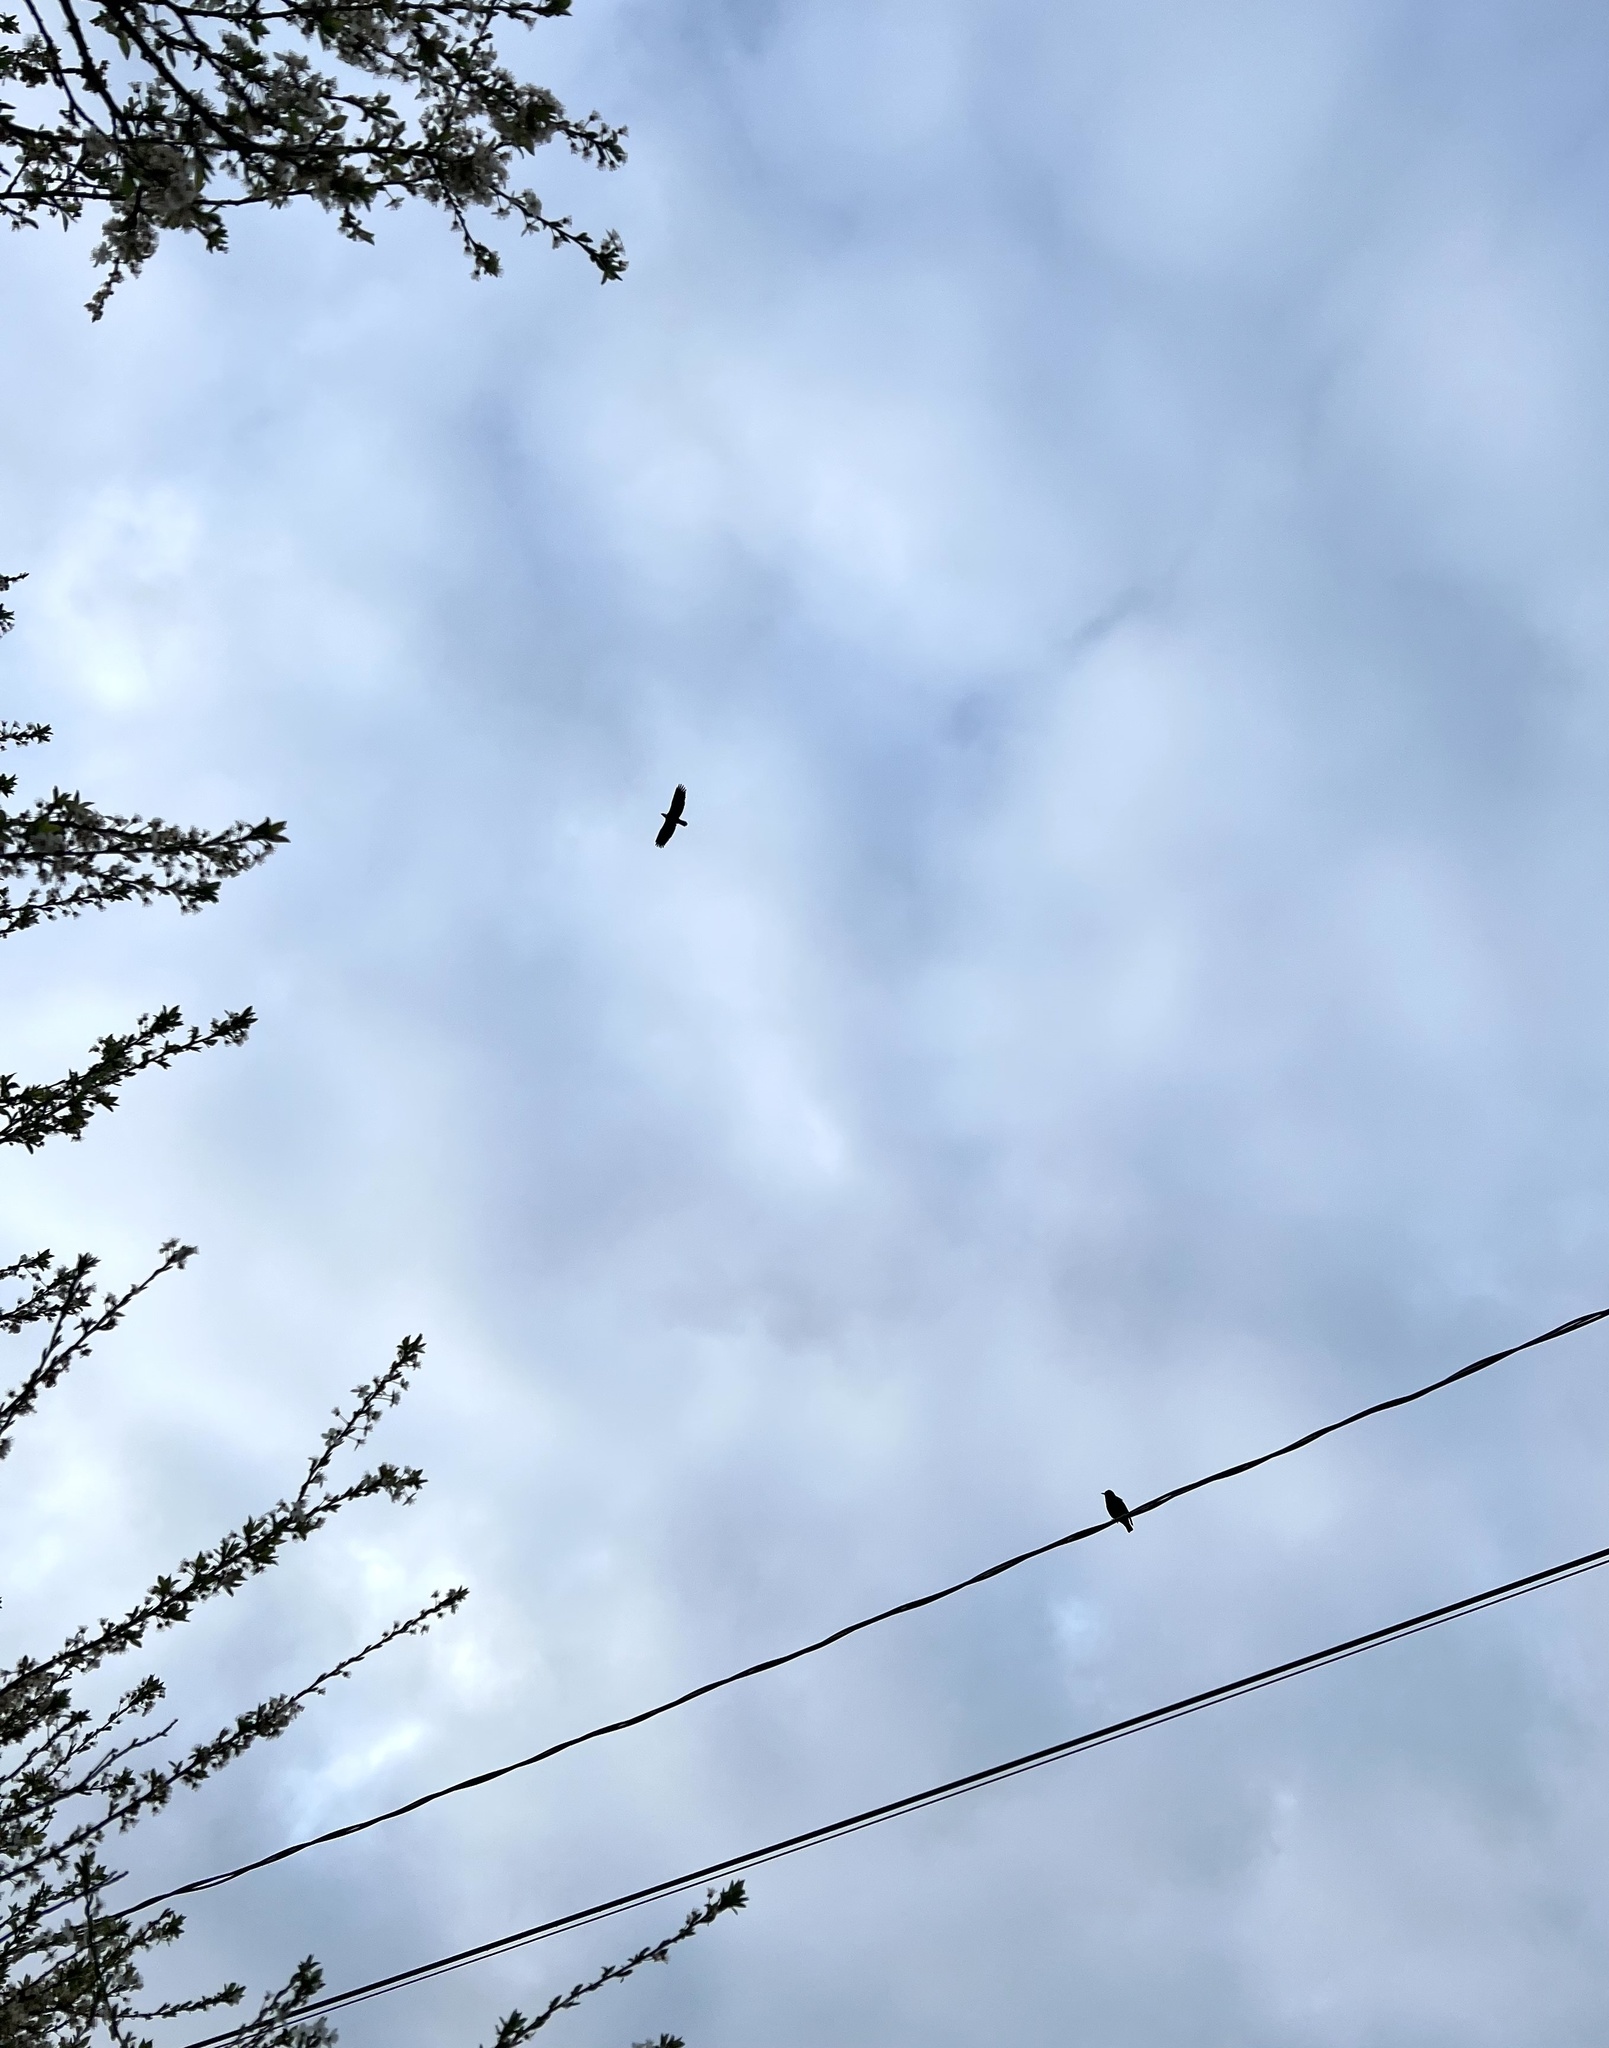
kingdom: Animalia
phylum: Chordata
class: Aves
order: Accipitriformes
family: Accipitridae
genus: Haliaeetus
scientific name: Haliaeetus leucocephalus
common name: Bald eagle
